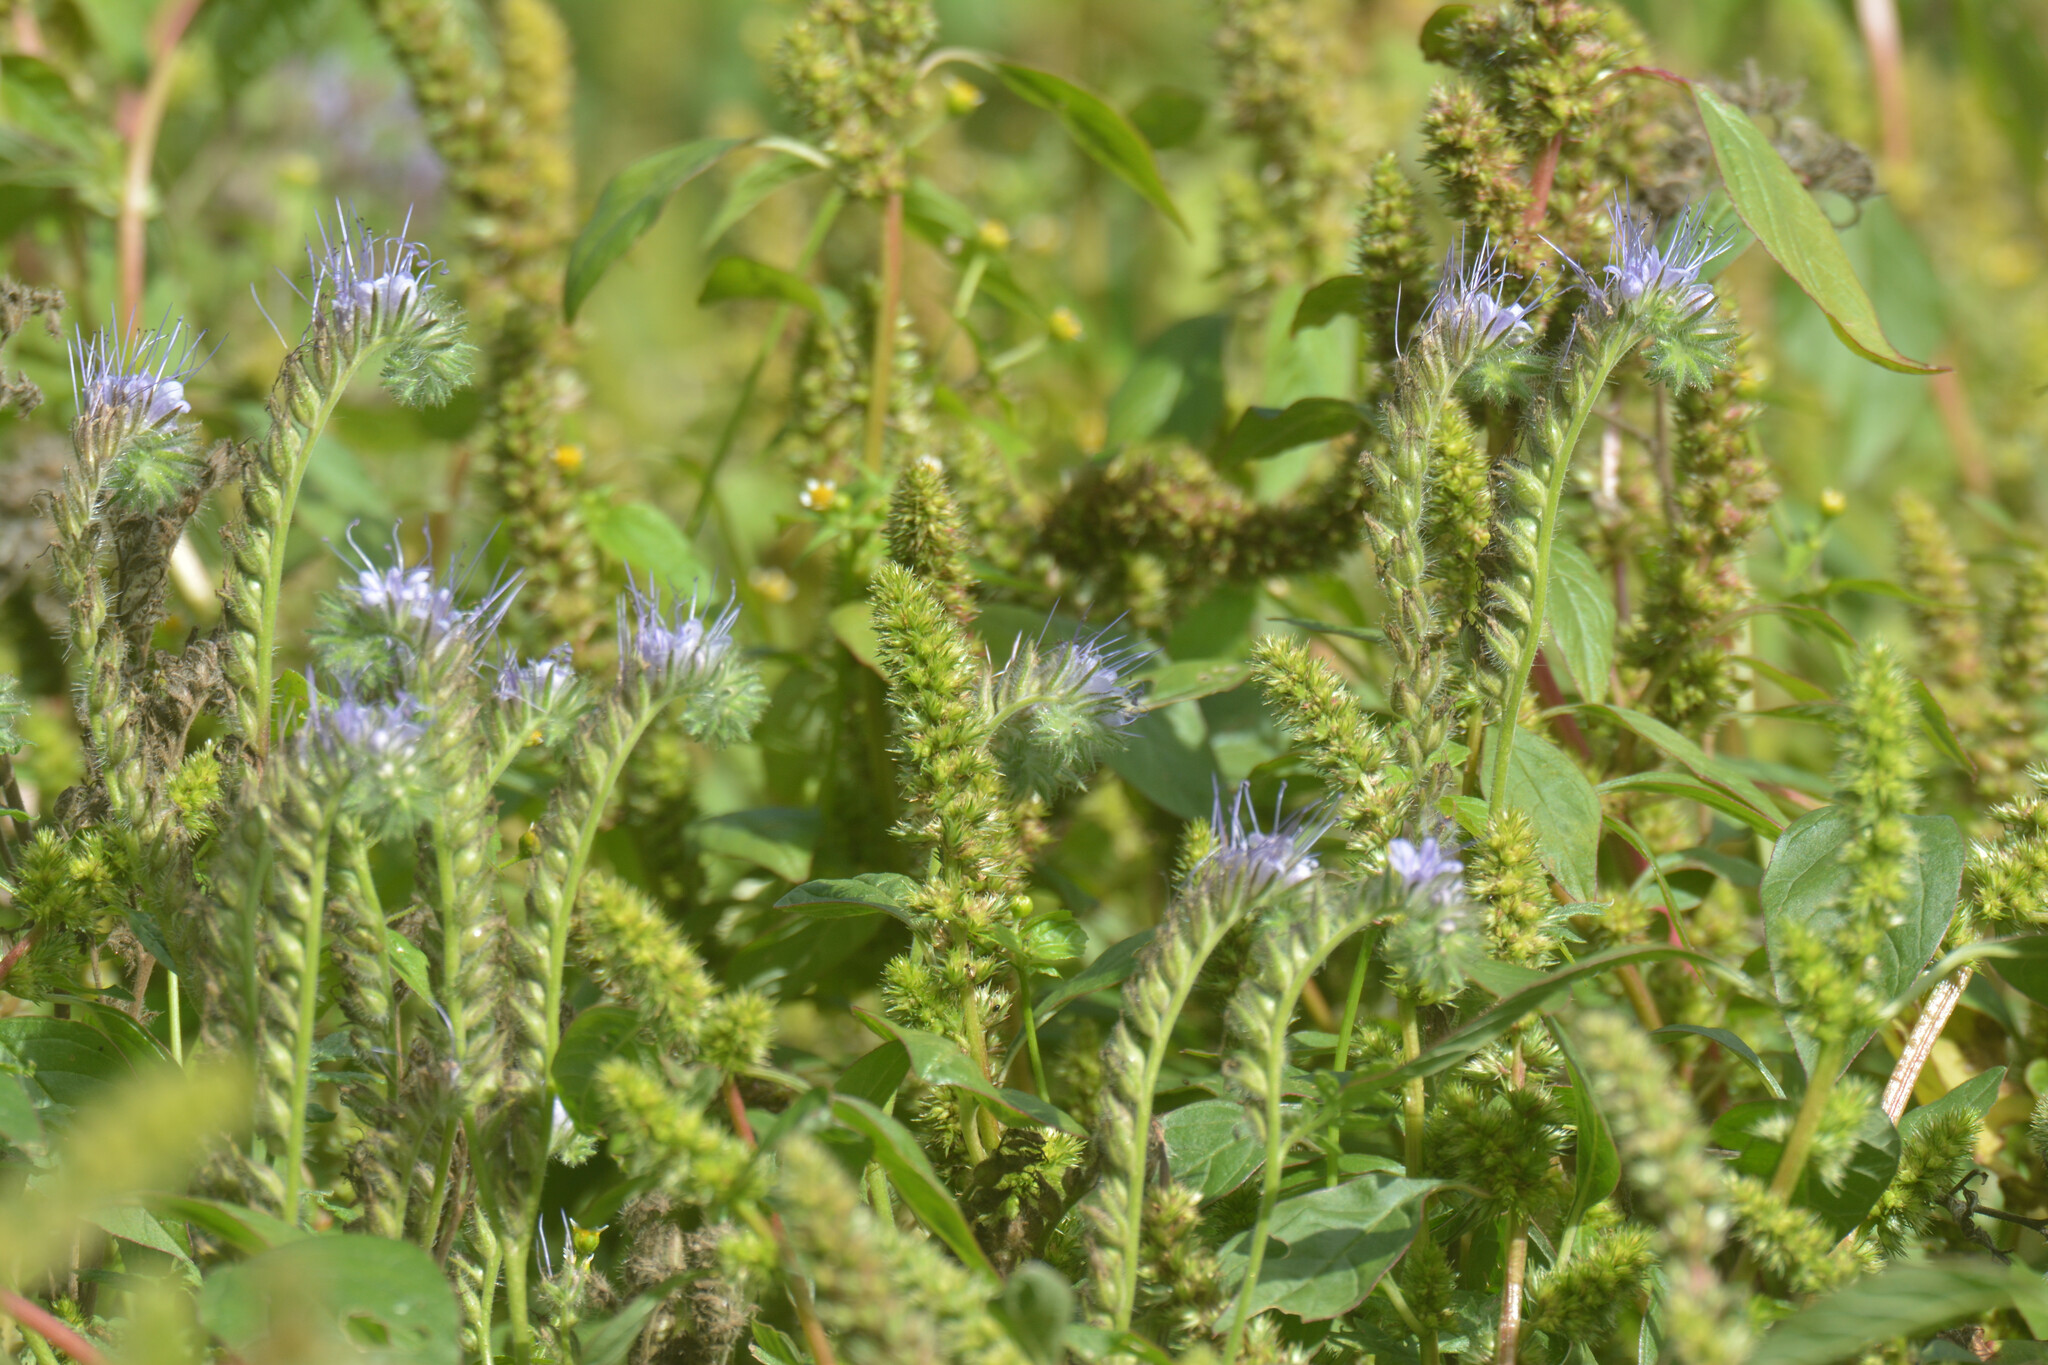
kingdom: Plantae
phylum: Tracheophyta
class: Magnoliopsida
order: Boraginales
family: Hydrophyllaceae
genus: Phacelia
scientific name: Phacelia tanacetifolia
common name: Phacelia
